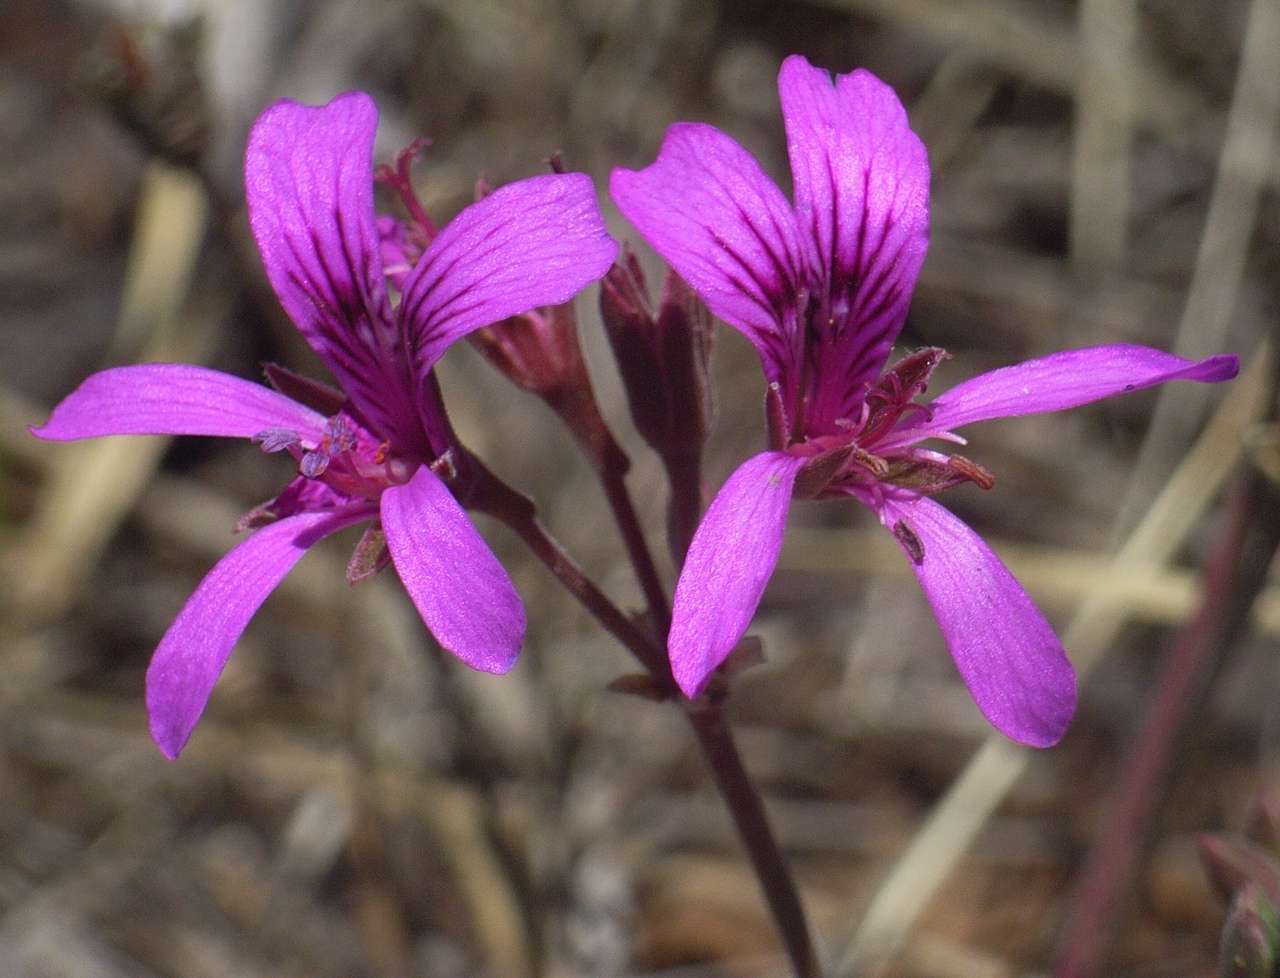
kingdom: Plantae
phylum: Tracheophyta
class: Magnoliopsida
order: Geraniales
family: Geraniaceae
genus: Pelargonium
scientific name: Pelargonium rodneyanum
